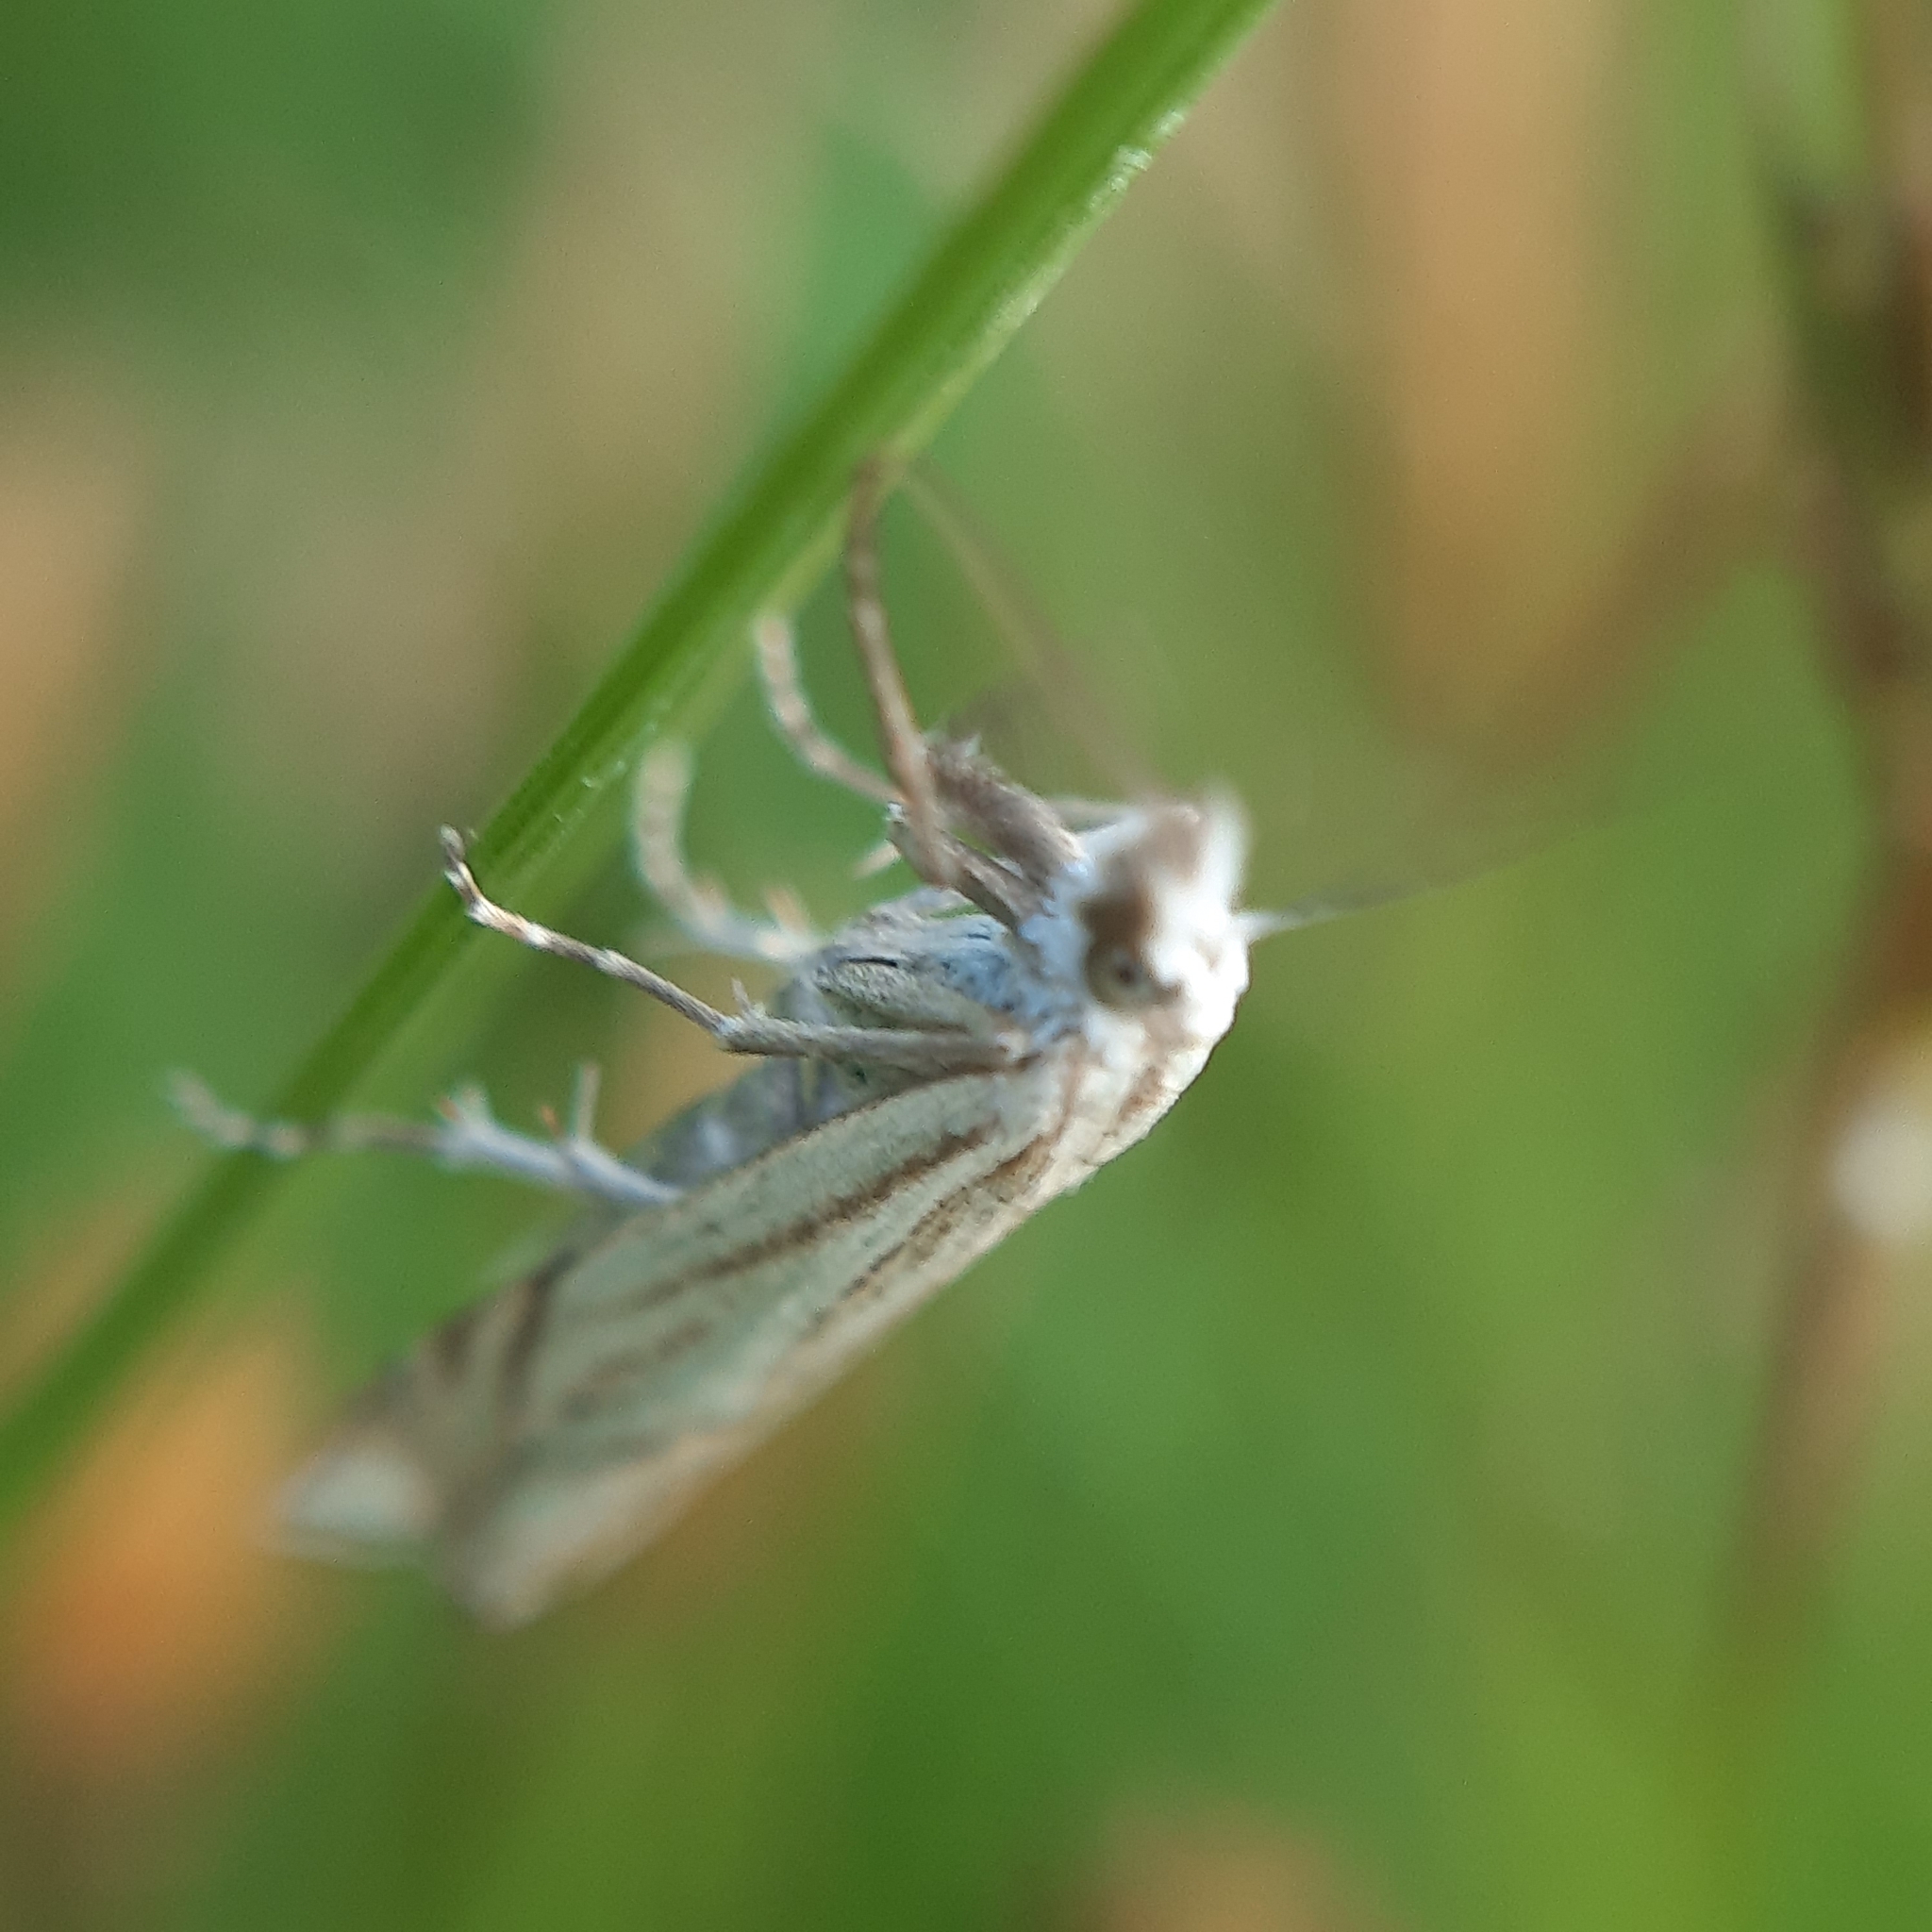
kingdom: Animalia
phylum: Arthropoda
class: Insecta
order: Lepidoptera
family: Crambidae
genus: Crambus
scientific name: Crambus nemorella
